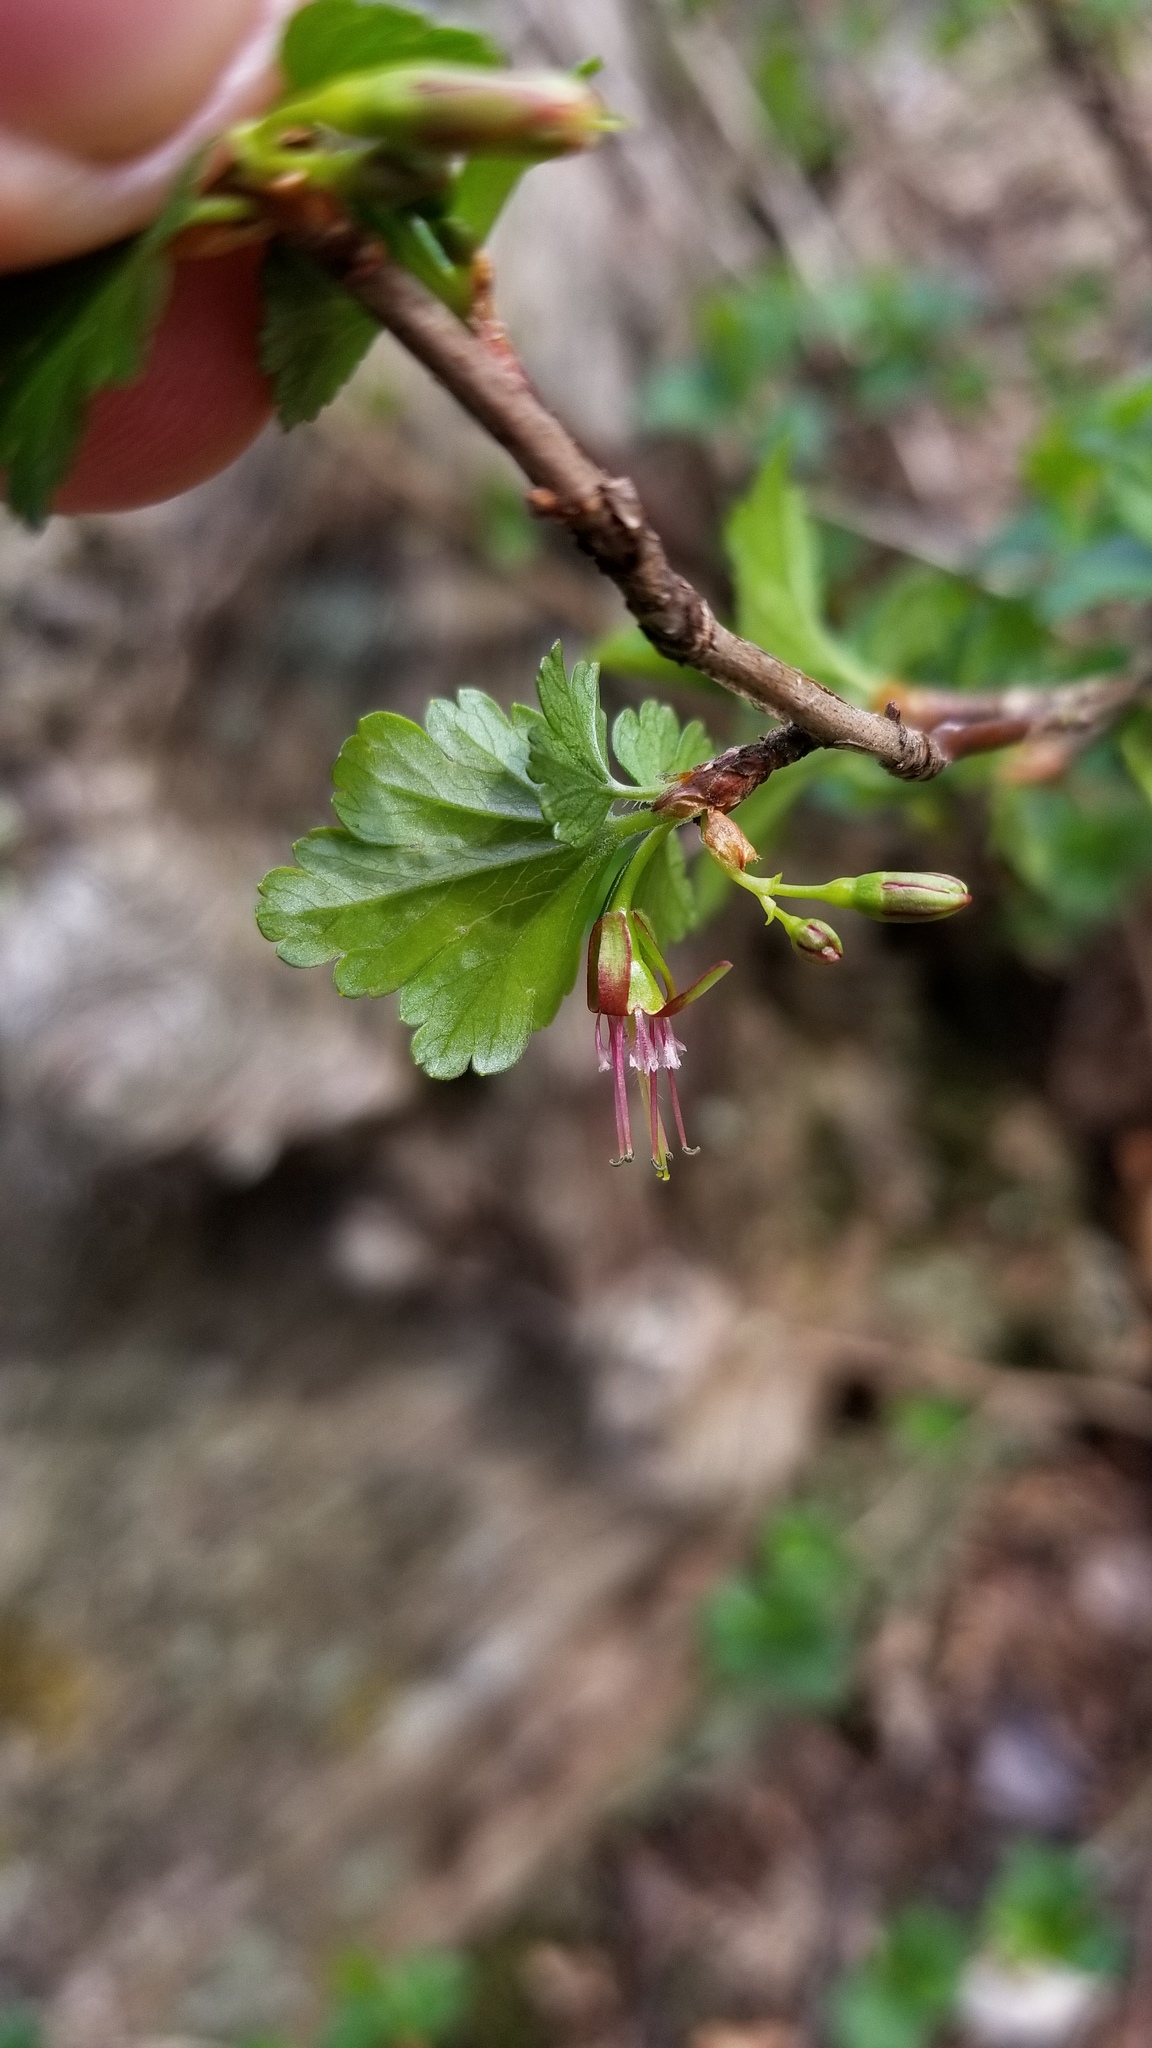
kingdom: Plantae
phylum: Tracheophyta
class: Magnoliopsida
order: Saxifragales
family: Grossulariaceae
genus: Ribes
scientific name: Ribes rotundifolium
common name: Appalachian gooseberry
